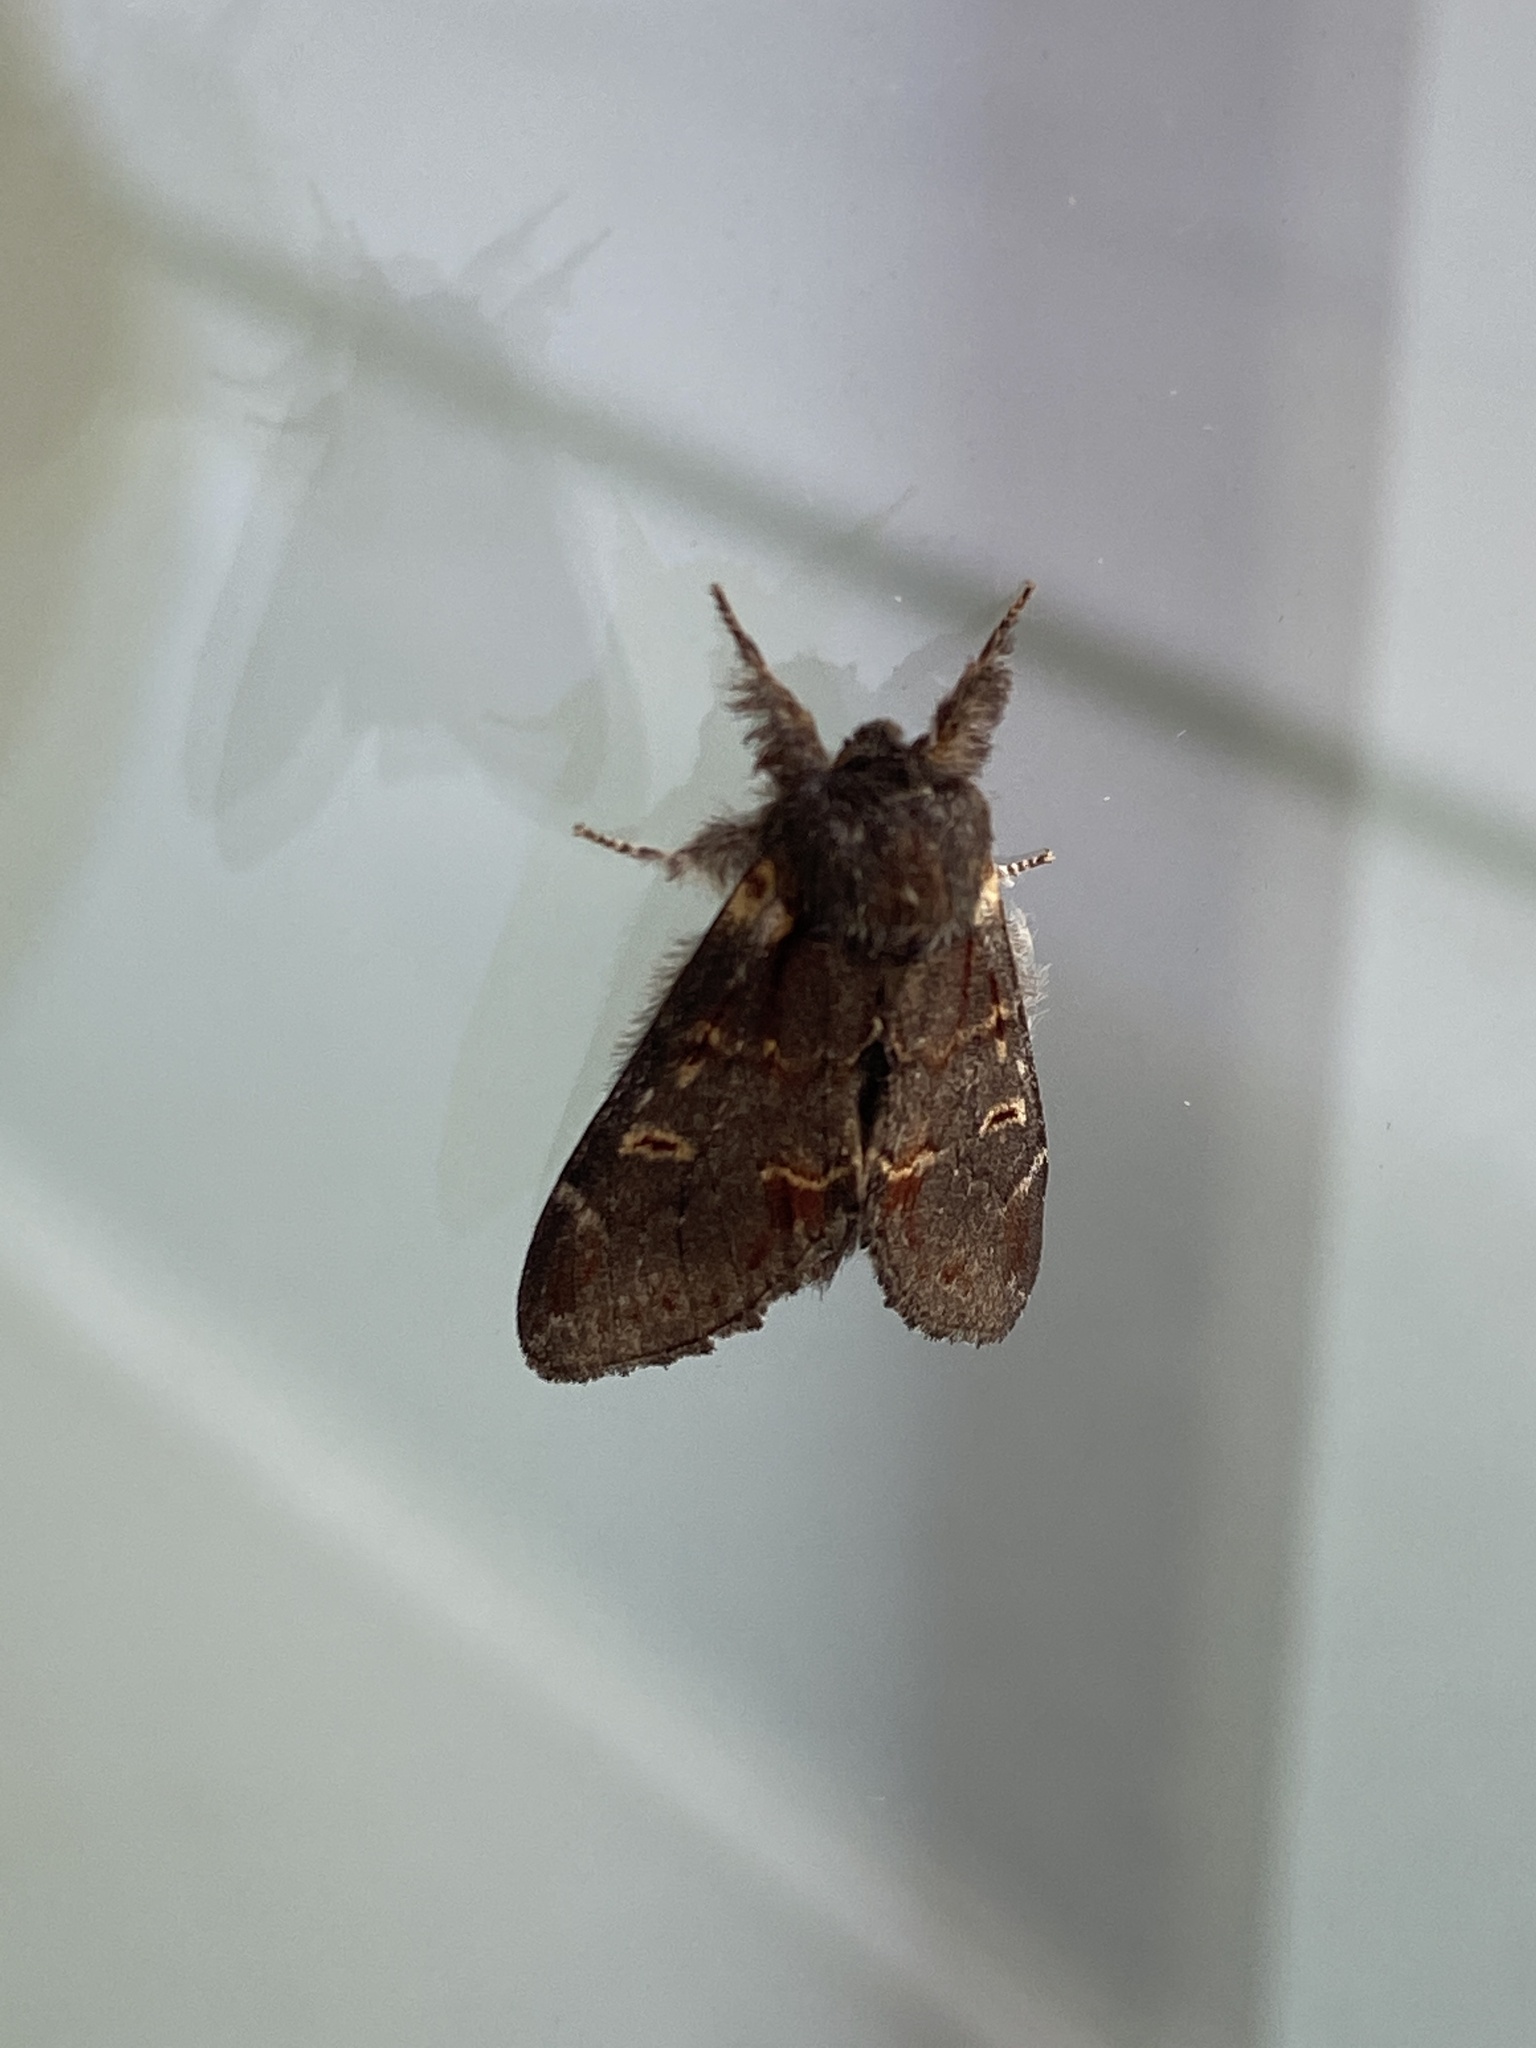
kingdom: Animalia
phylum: Arthropoda
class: Insecta
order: Lepidoptera
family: Notodontidae
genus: Notodonta
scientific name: Notodonta dromedarius
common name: Iron prominent
